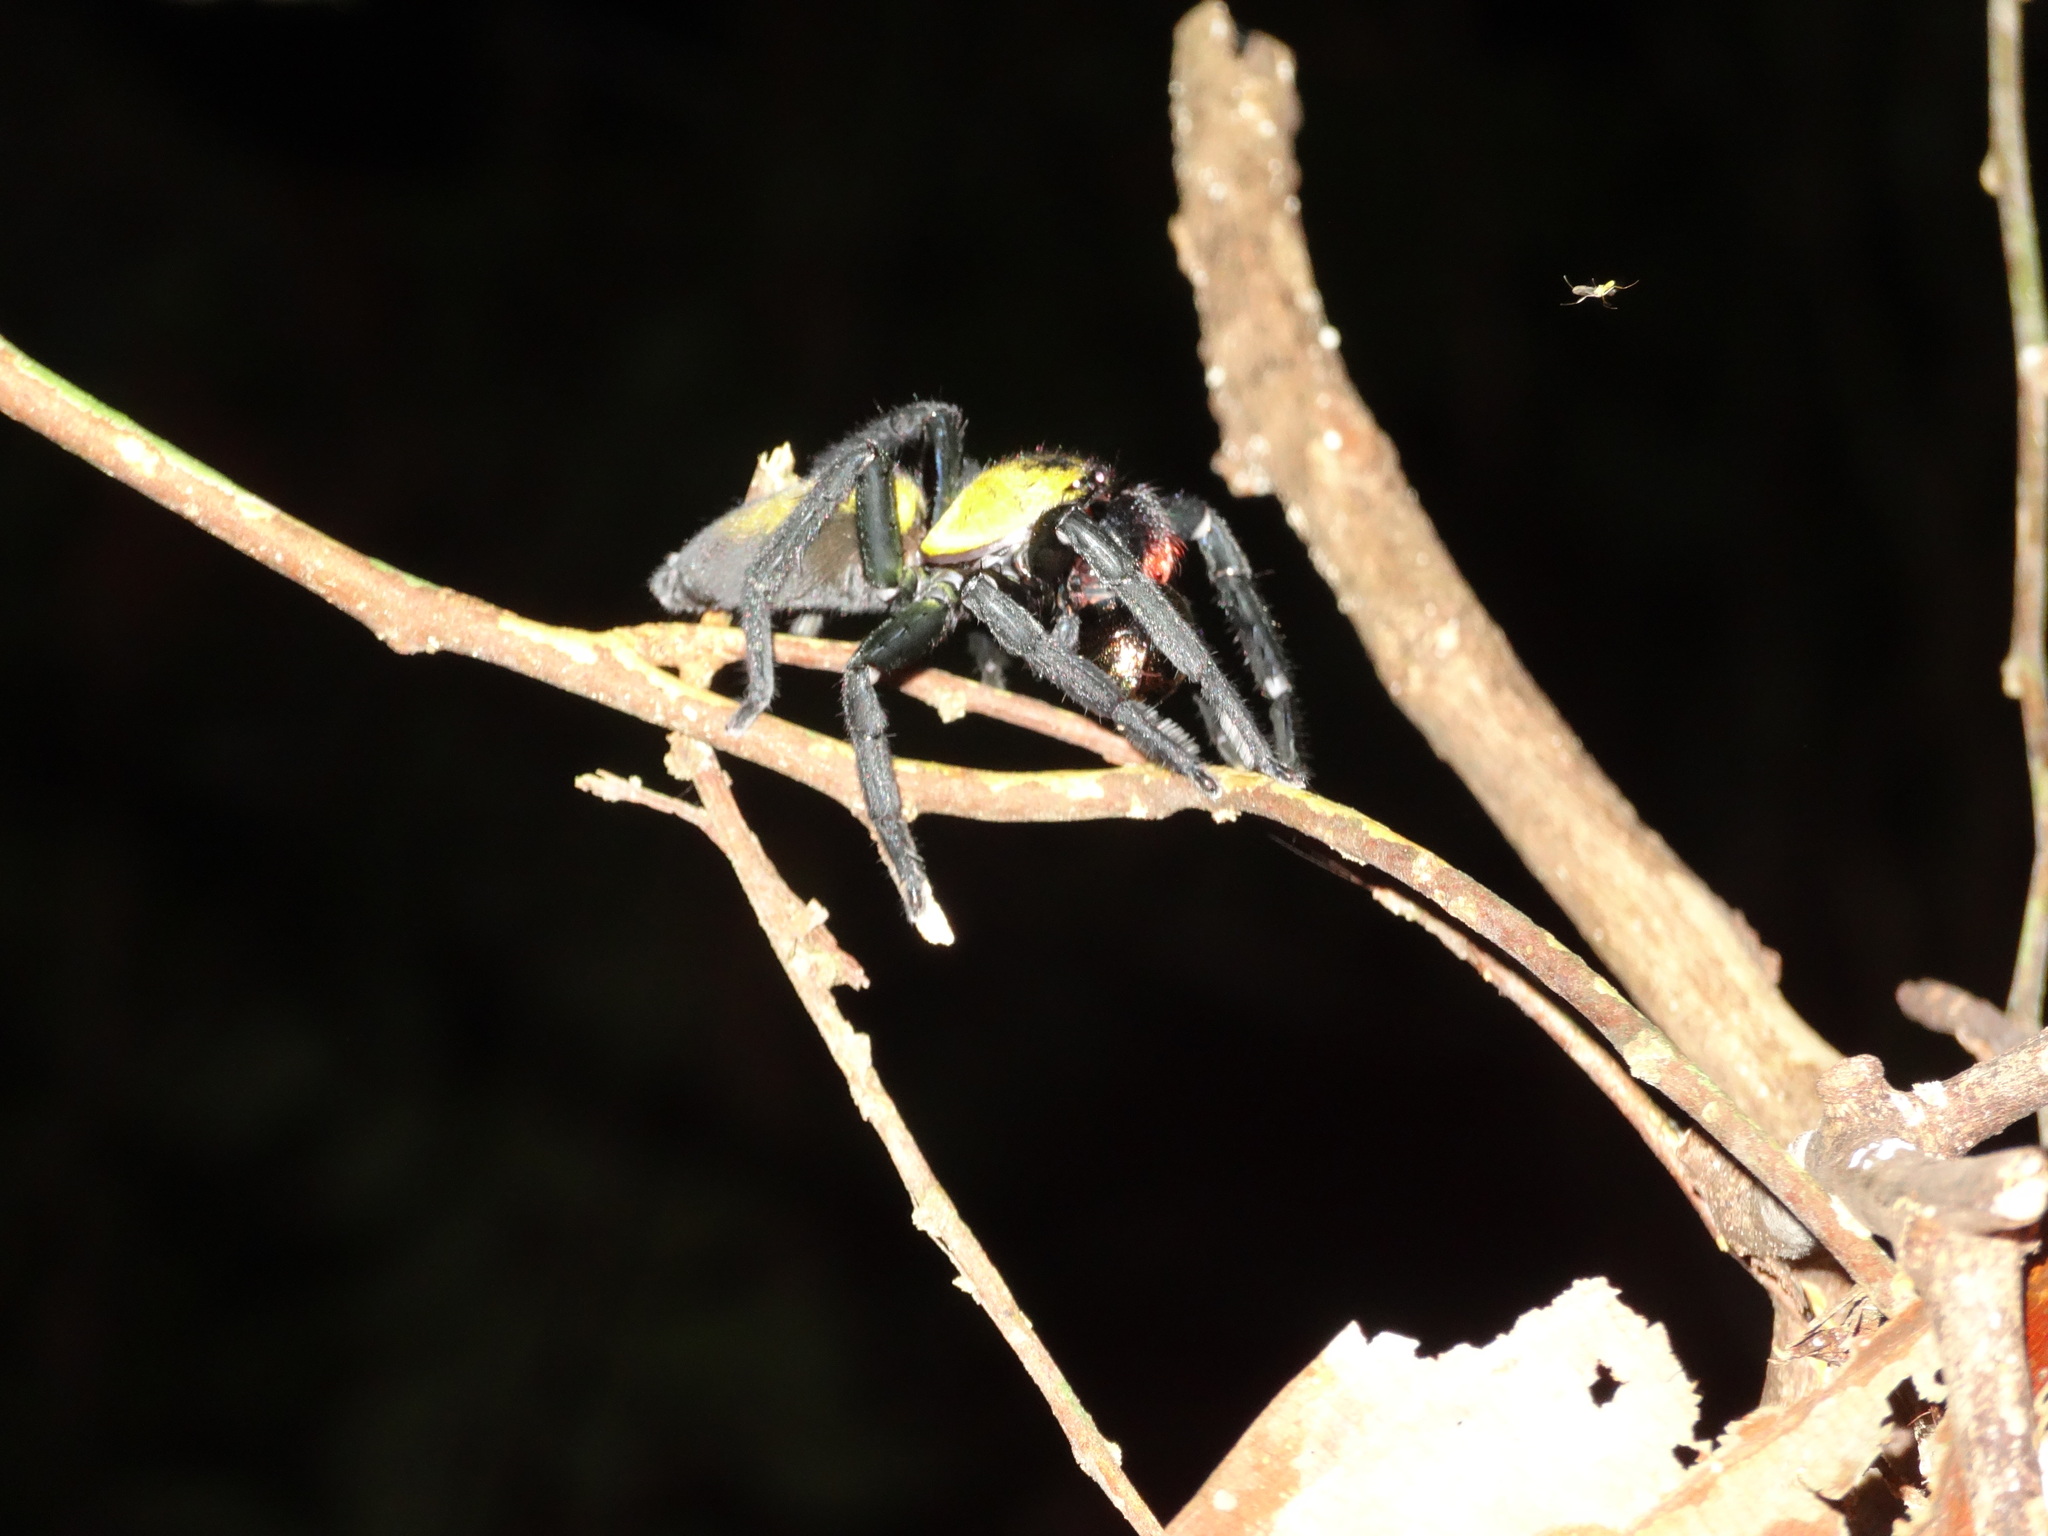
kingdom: Animalia
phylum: Arthropoda
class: Arachnida
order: Araneae
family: Sparassidae
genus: Thelcticopis
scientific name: Thelcticopis orichalcea
